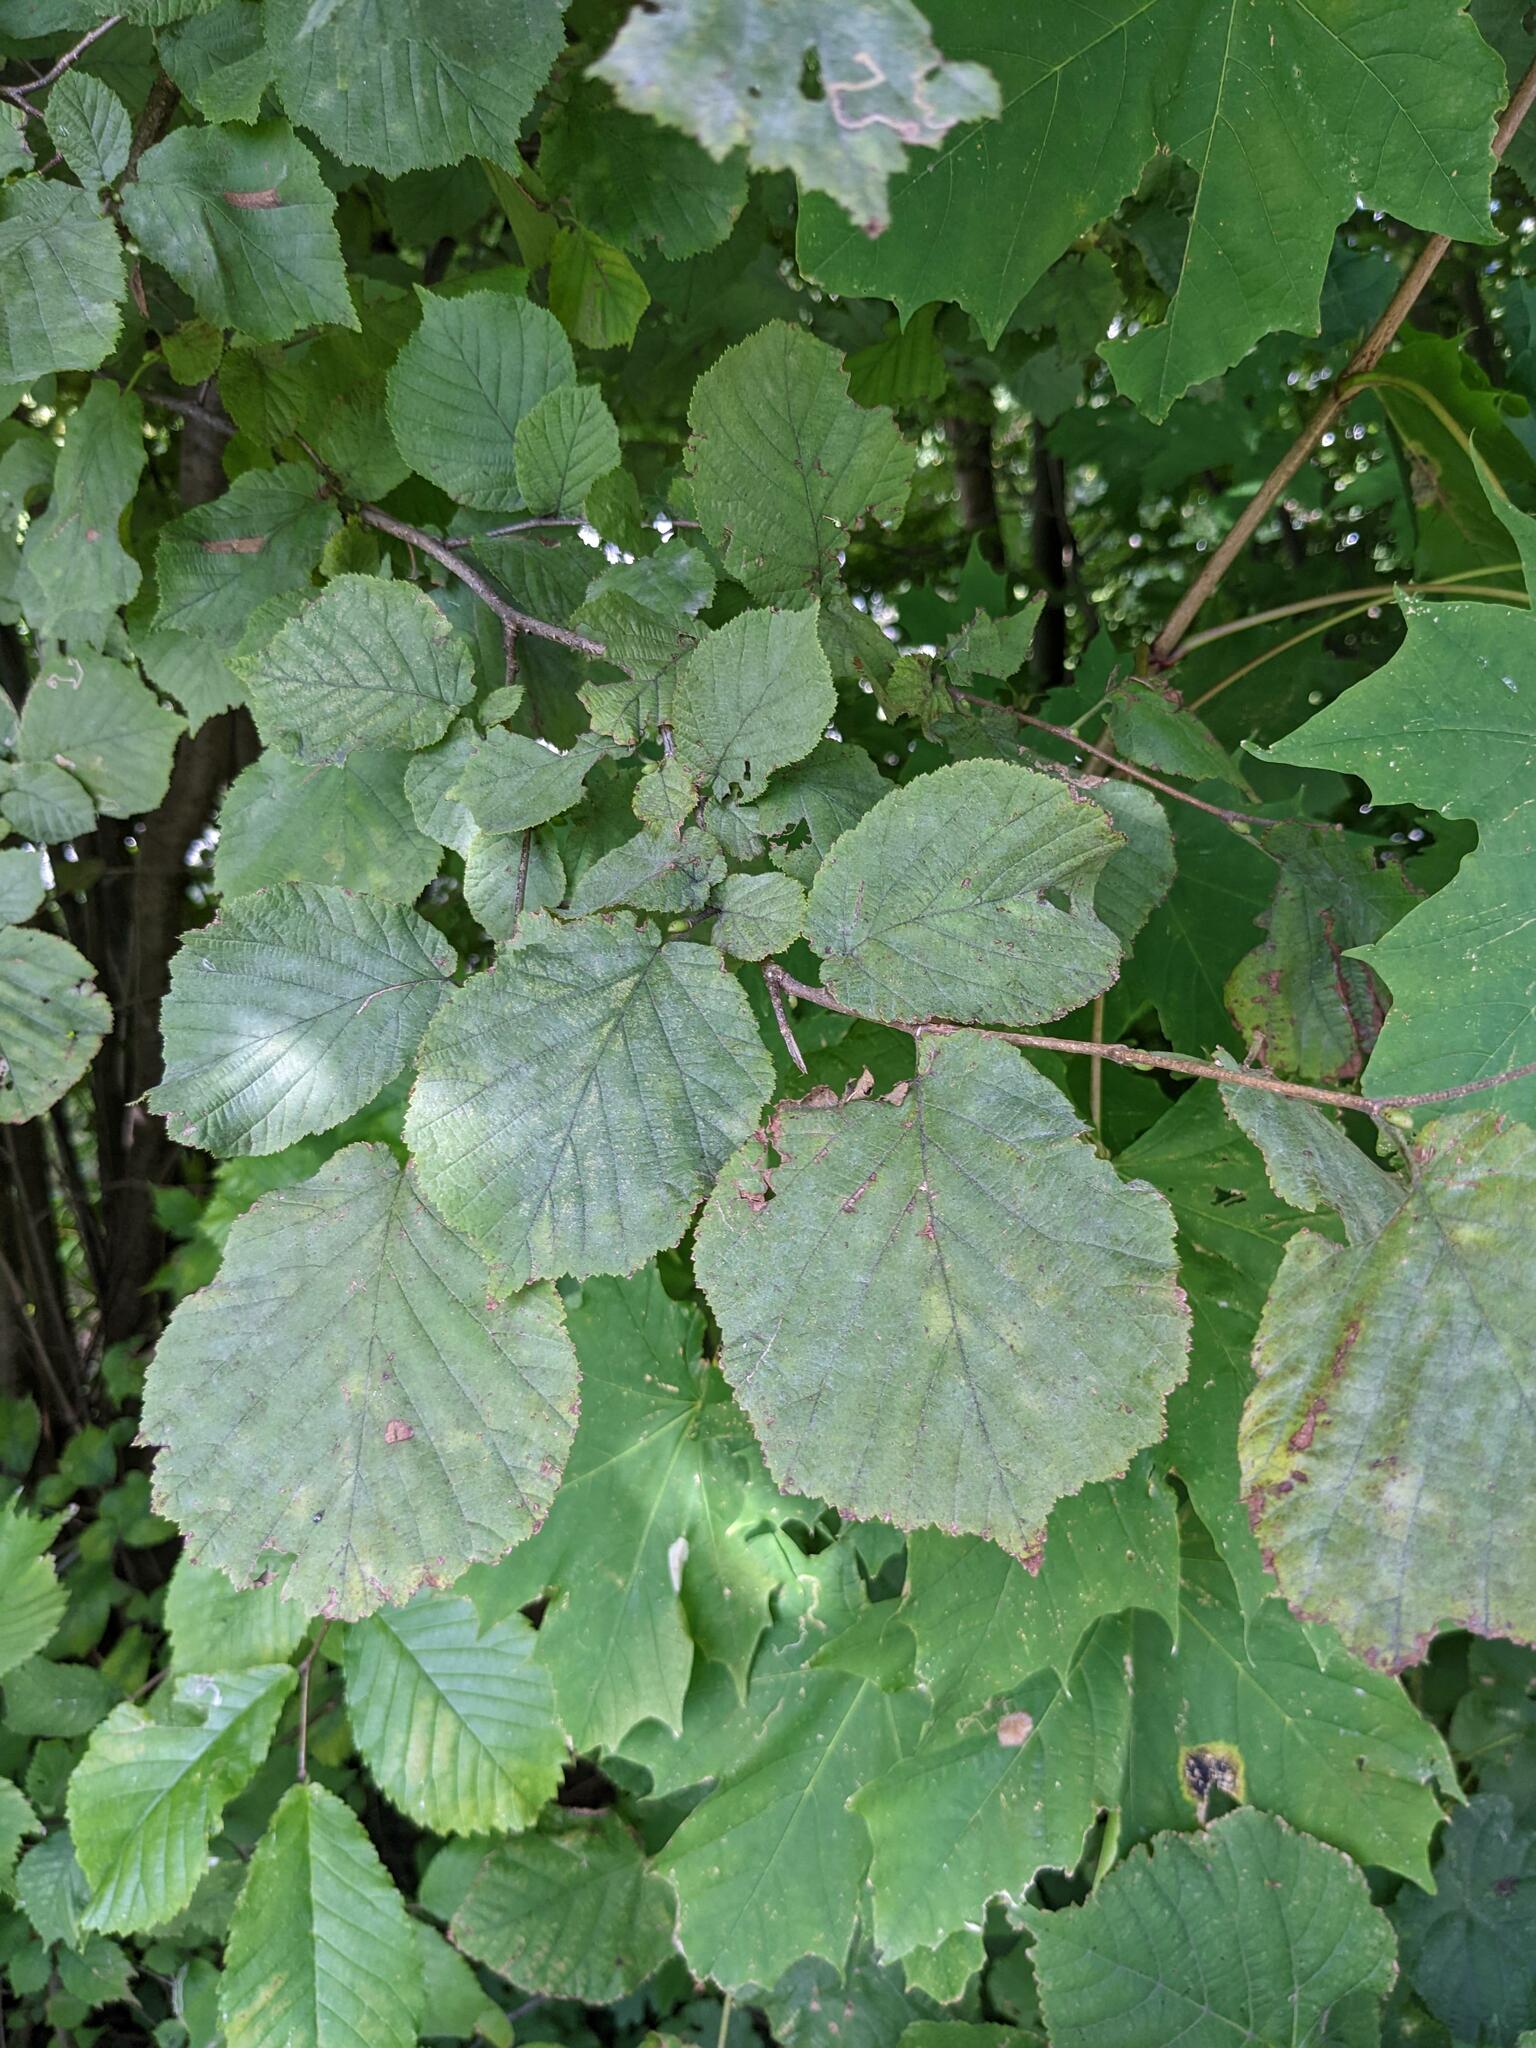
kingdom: Plantae
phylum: Tracheophyta
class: Magnoliopsida
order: Fagales
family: Betulaceae
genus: Corylus
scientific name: Corylus avellana
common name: European hazel
